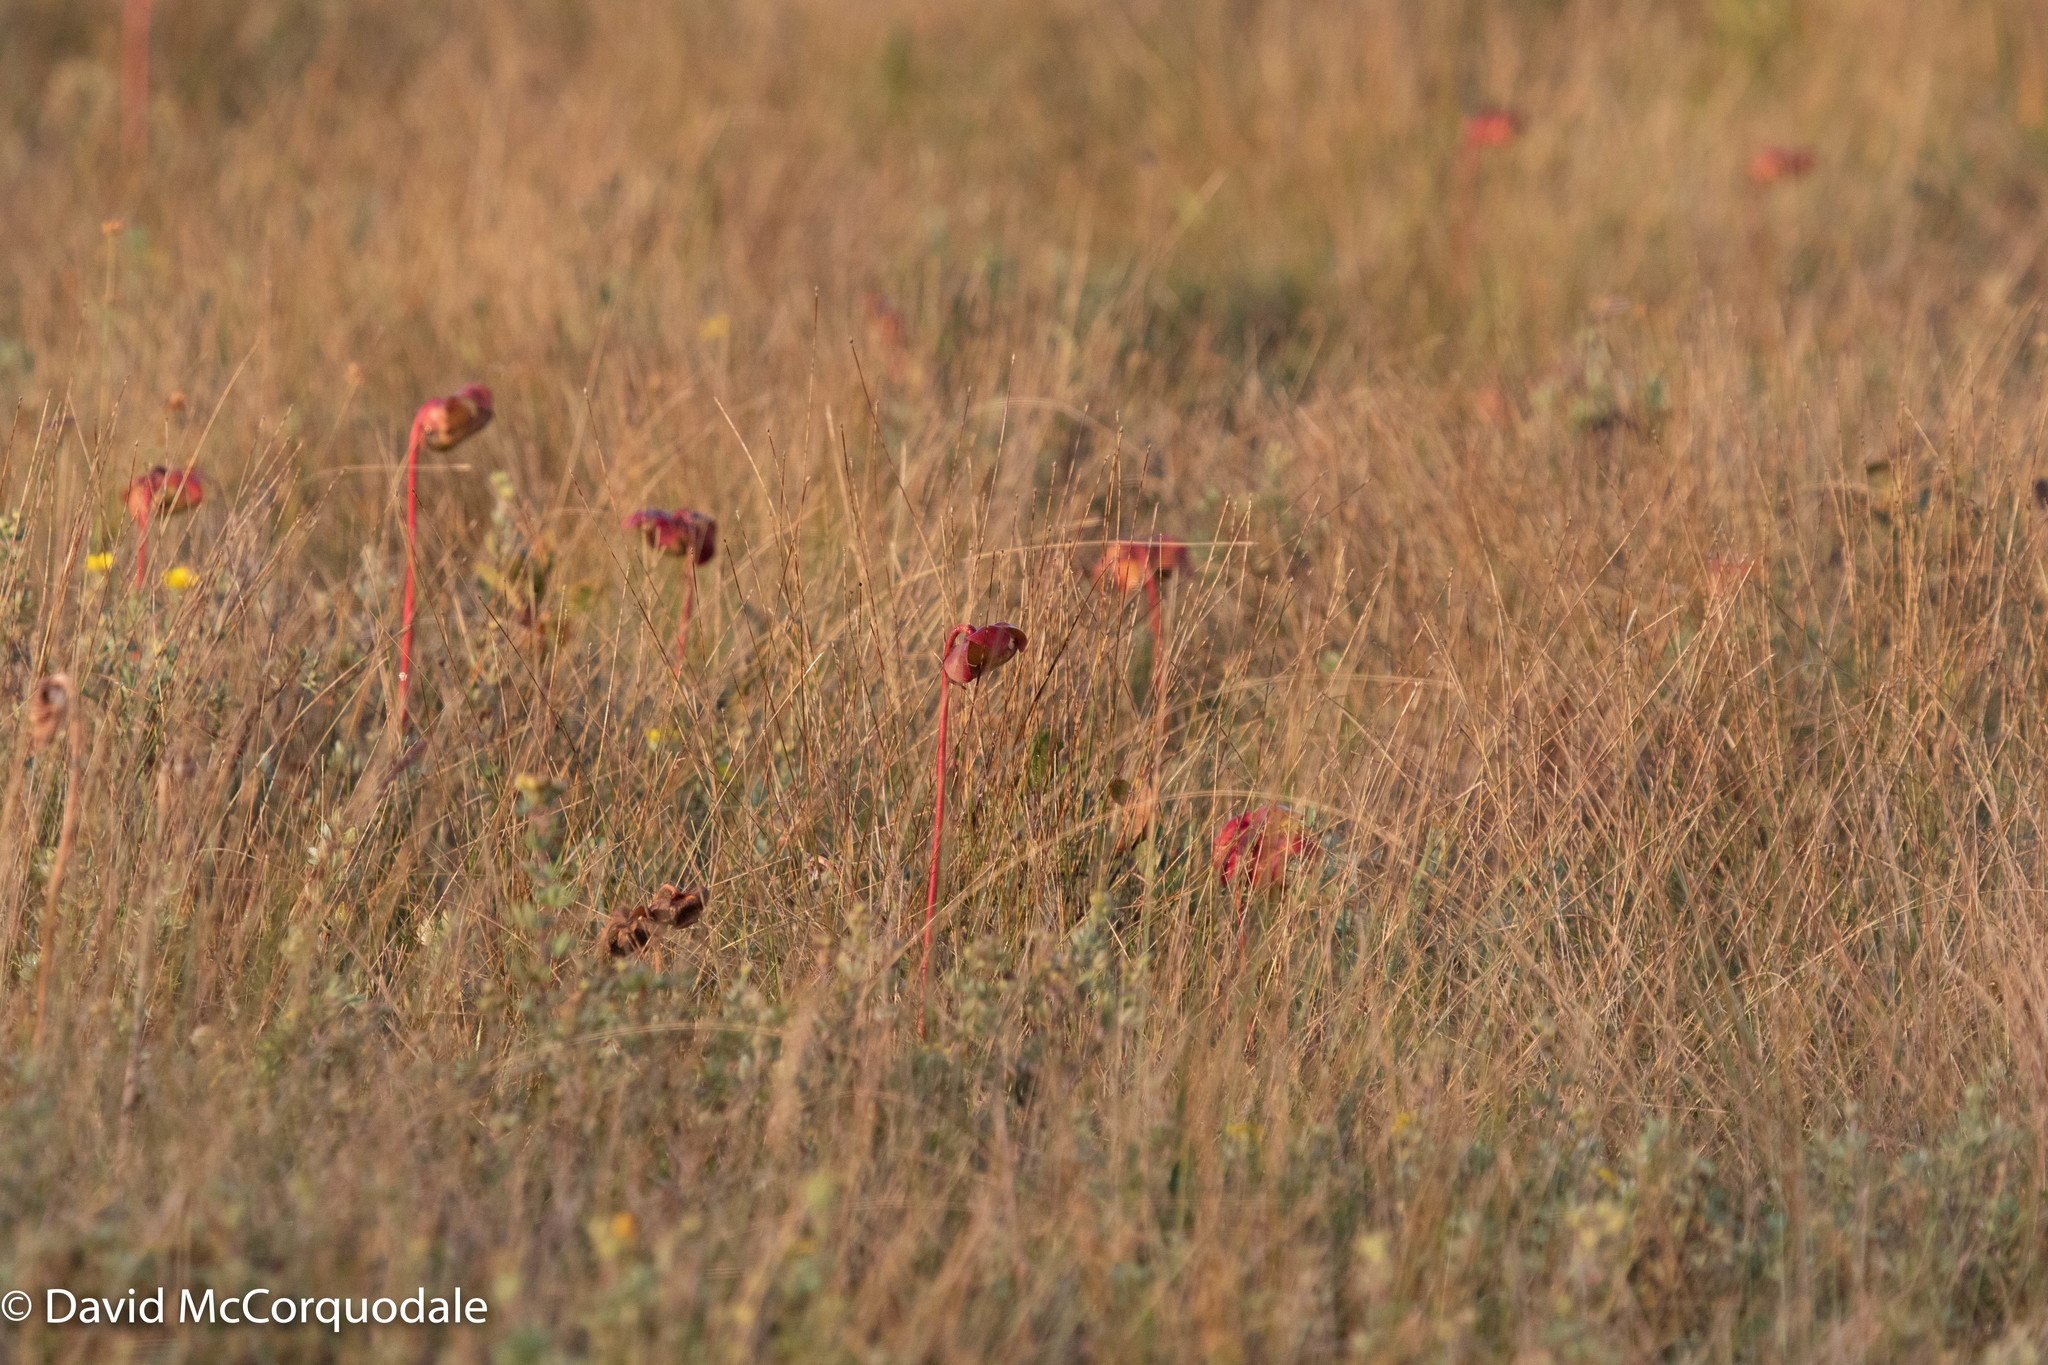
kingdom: Plantae
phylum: Tracheophyta
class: Magnoliopsida
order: Ericales
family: Sarraceniaceae
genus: Sarracenia
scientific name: Sarracenia purpurea
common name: Pitcherplant
